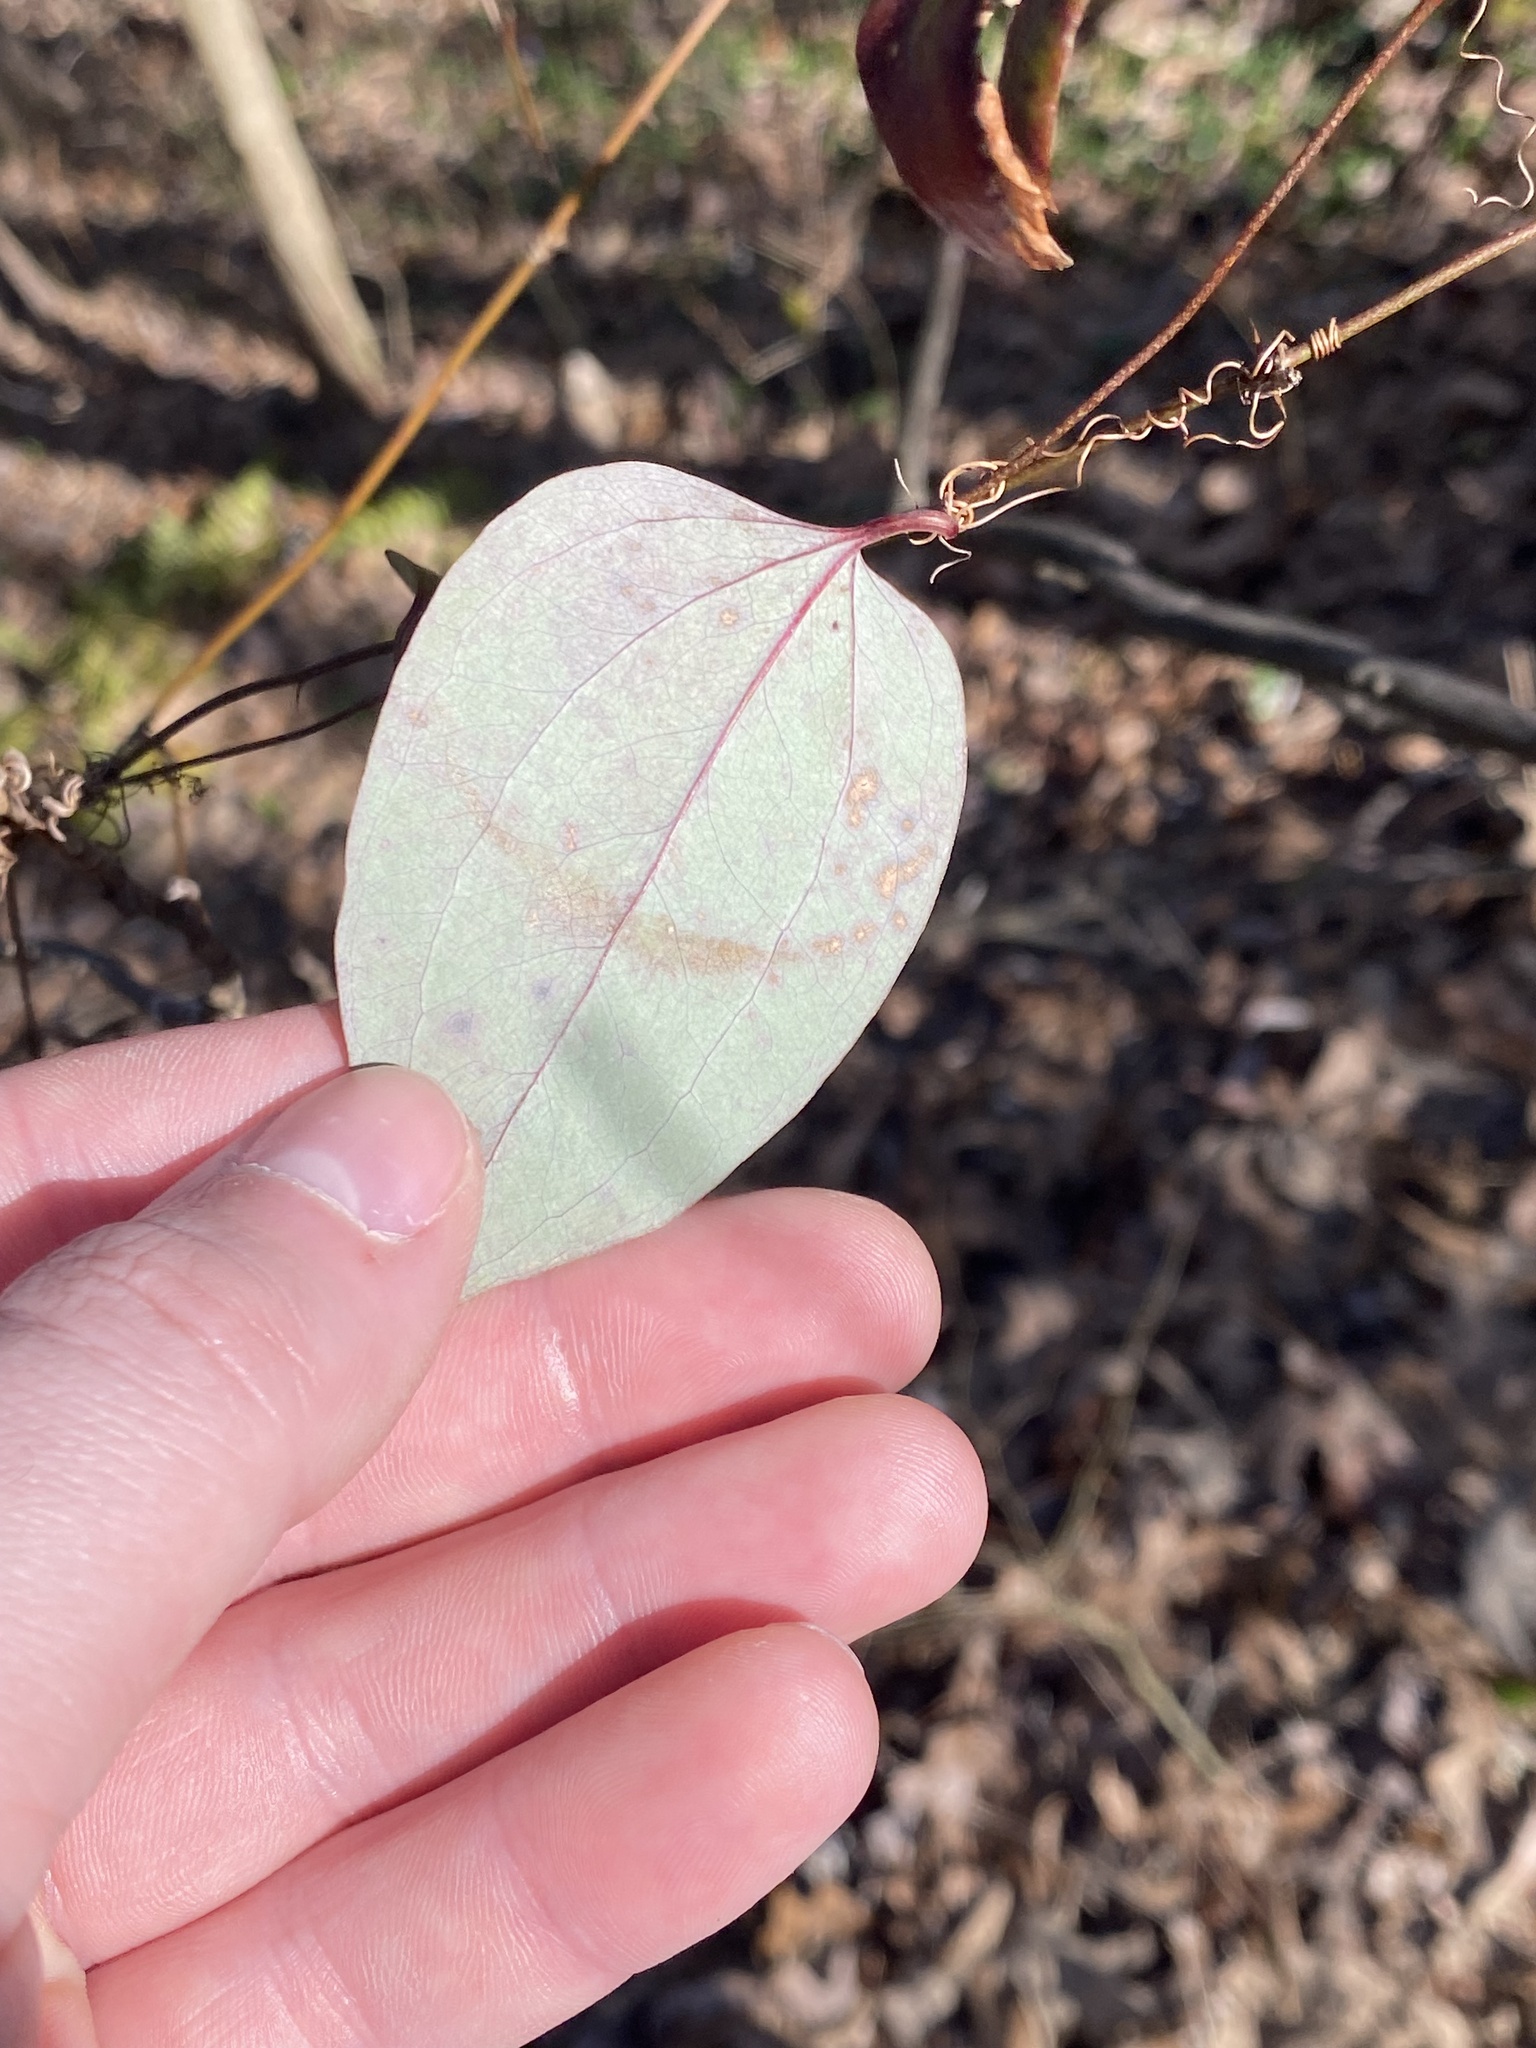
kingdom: Plantae
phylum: Tracheophyta
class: Liliopsida
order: Liliales
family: Smilacaceae
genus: Smilax
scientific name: Smilax glauca
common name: Cat greenbrier
